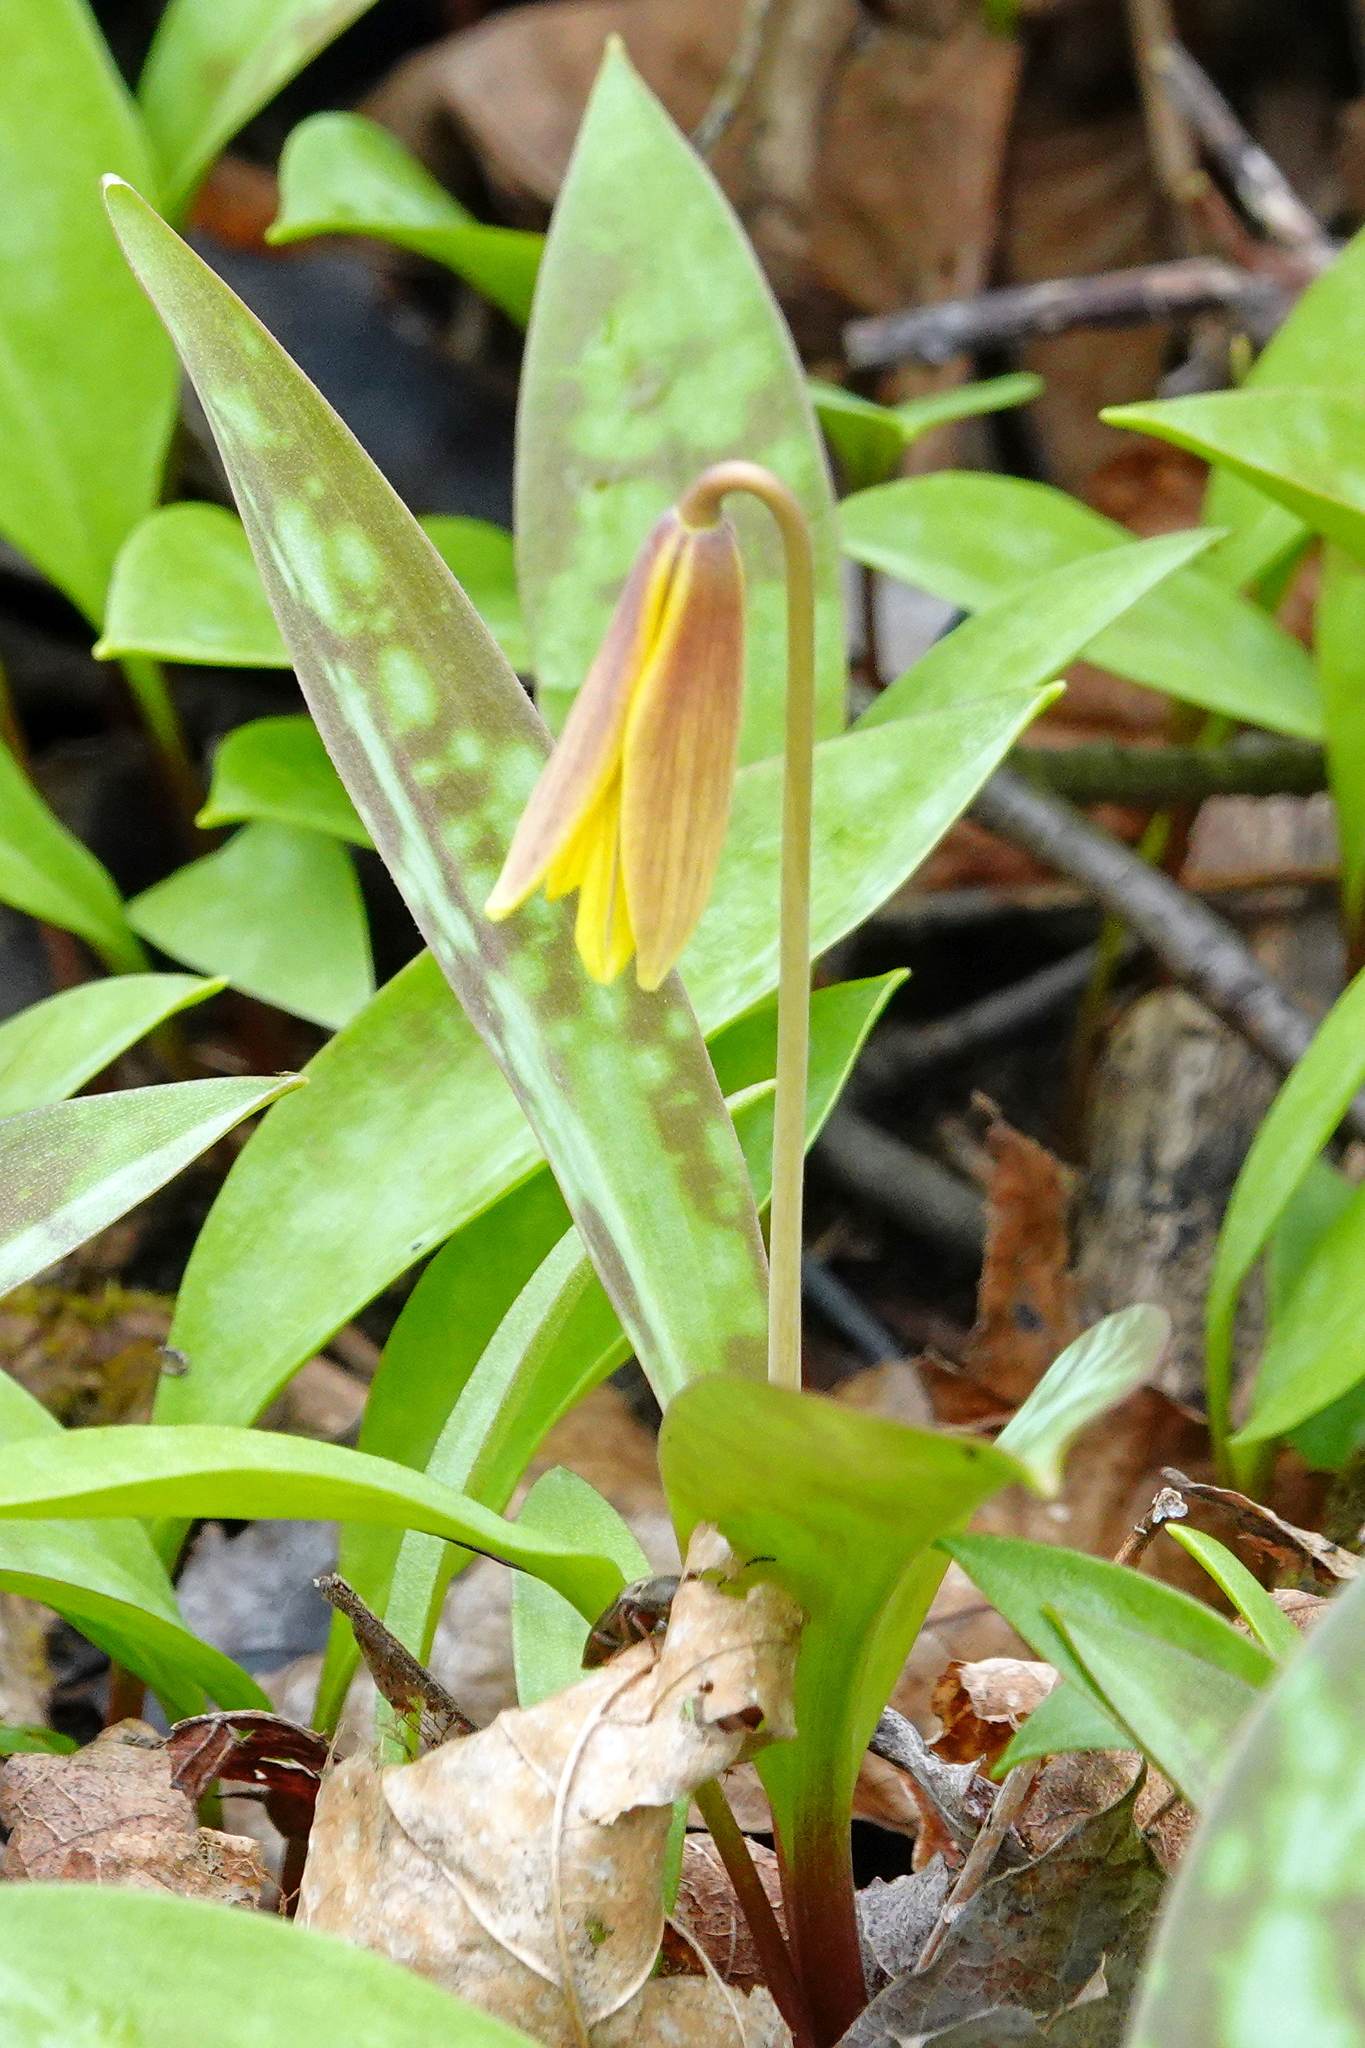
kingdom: Plantae
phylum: Tracheophyta
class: Liliopsida
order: Liliales
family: Liliaceae
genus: Erythronium
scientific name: Erythronium americanum
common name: Yellow adder's-tongue
